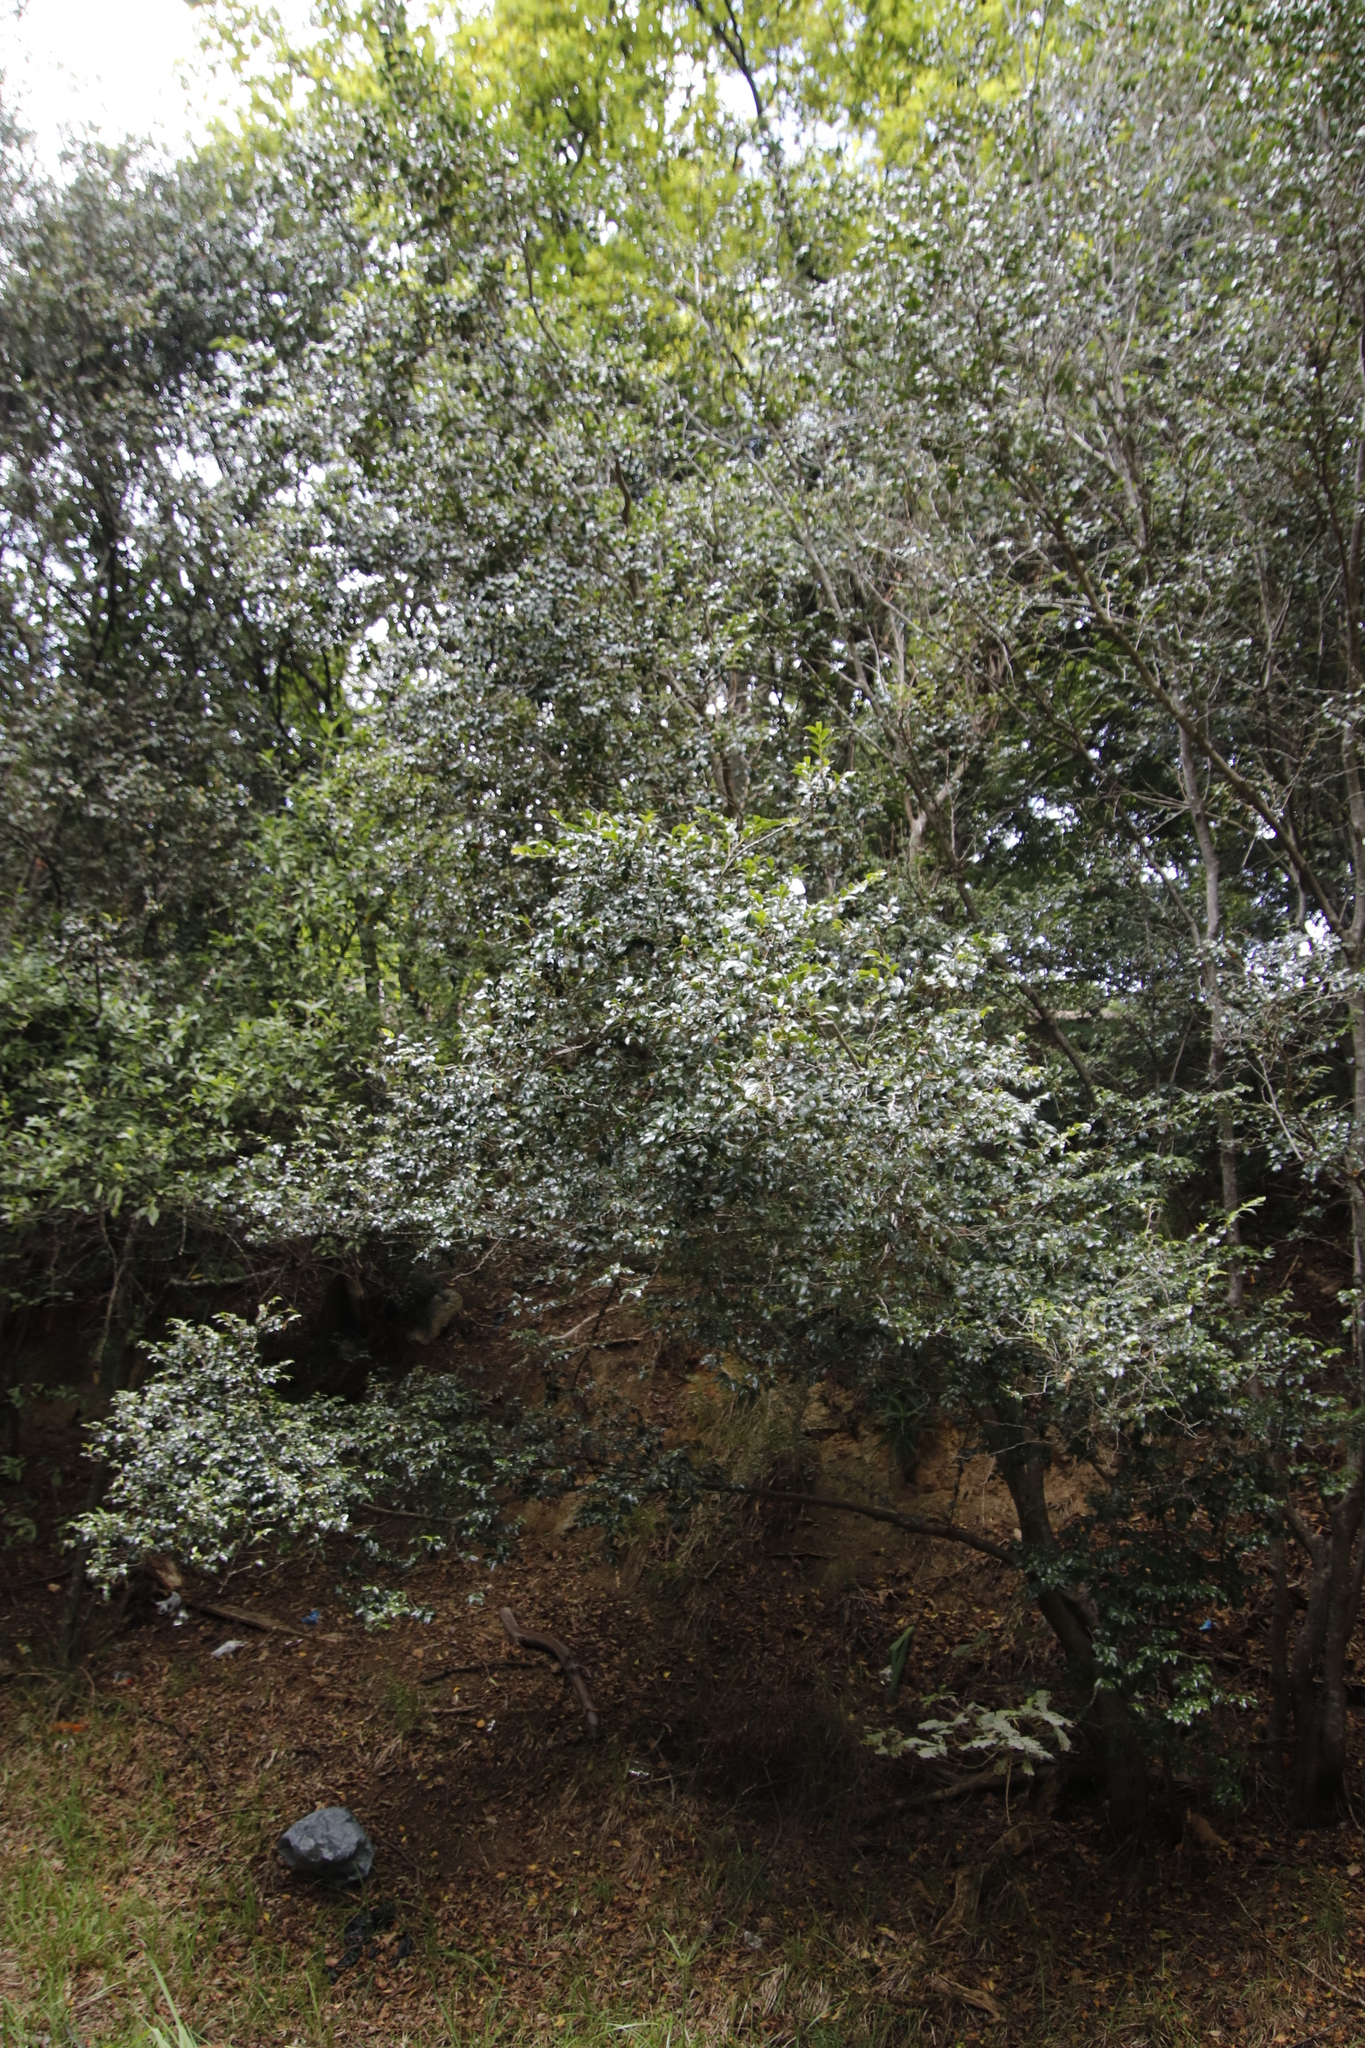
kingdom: Plantae
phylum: Tracheophyta
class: Magnoliopsida
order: Ericales
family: Ebenaceae
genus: Diospyros
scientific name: Diospyros whyteana
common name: Bladder-nut
